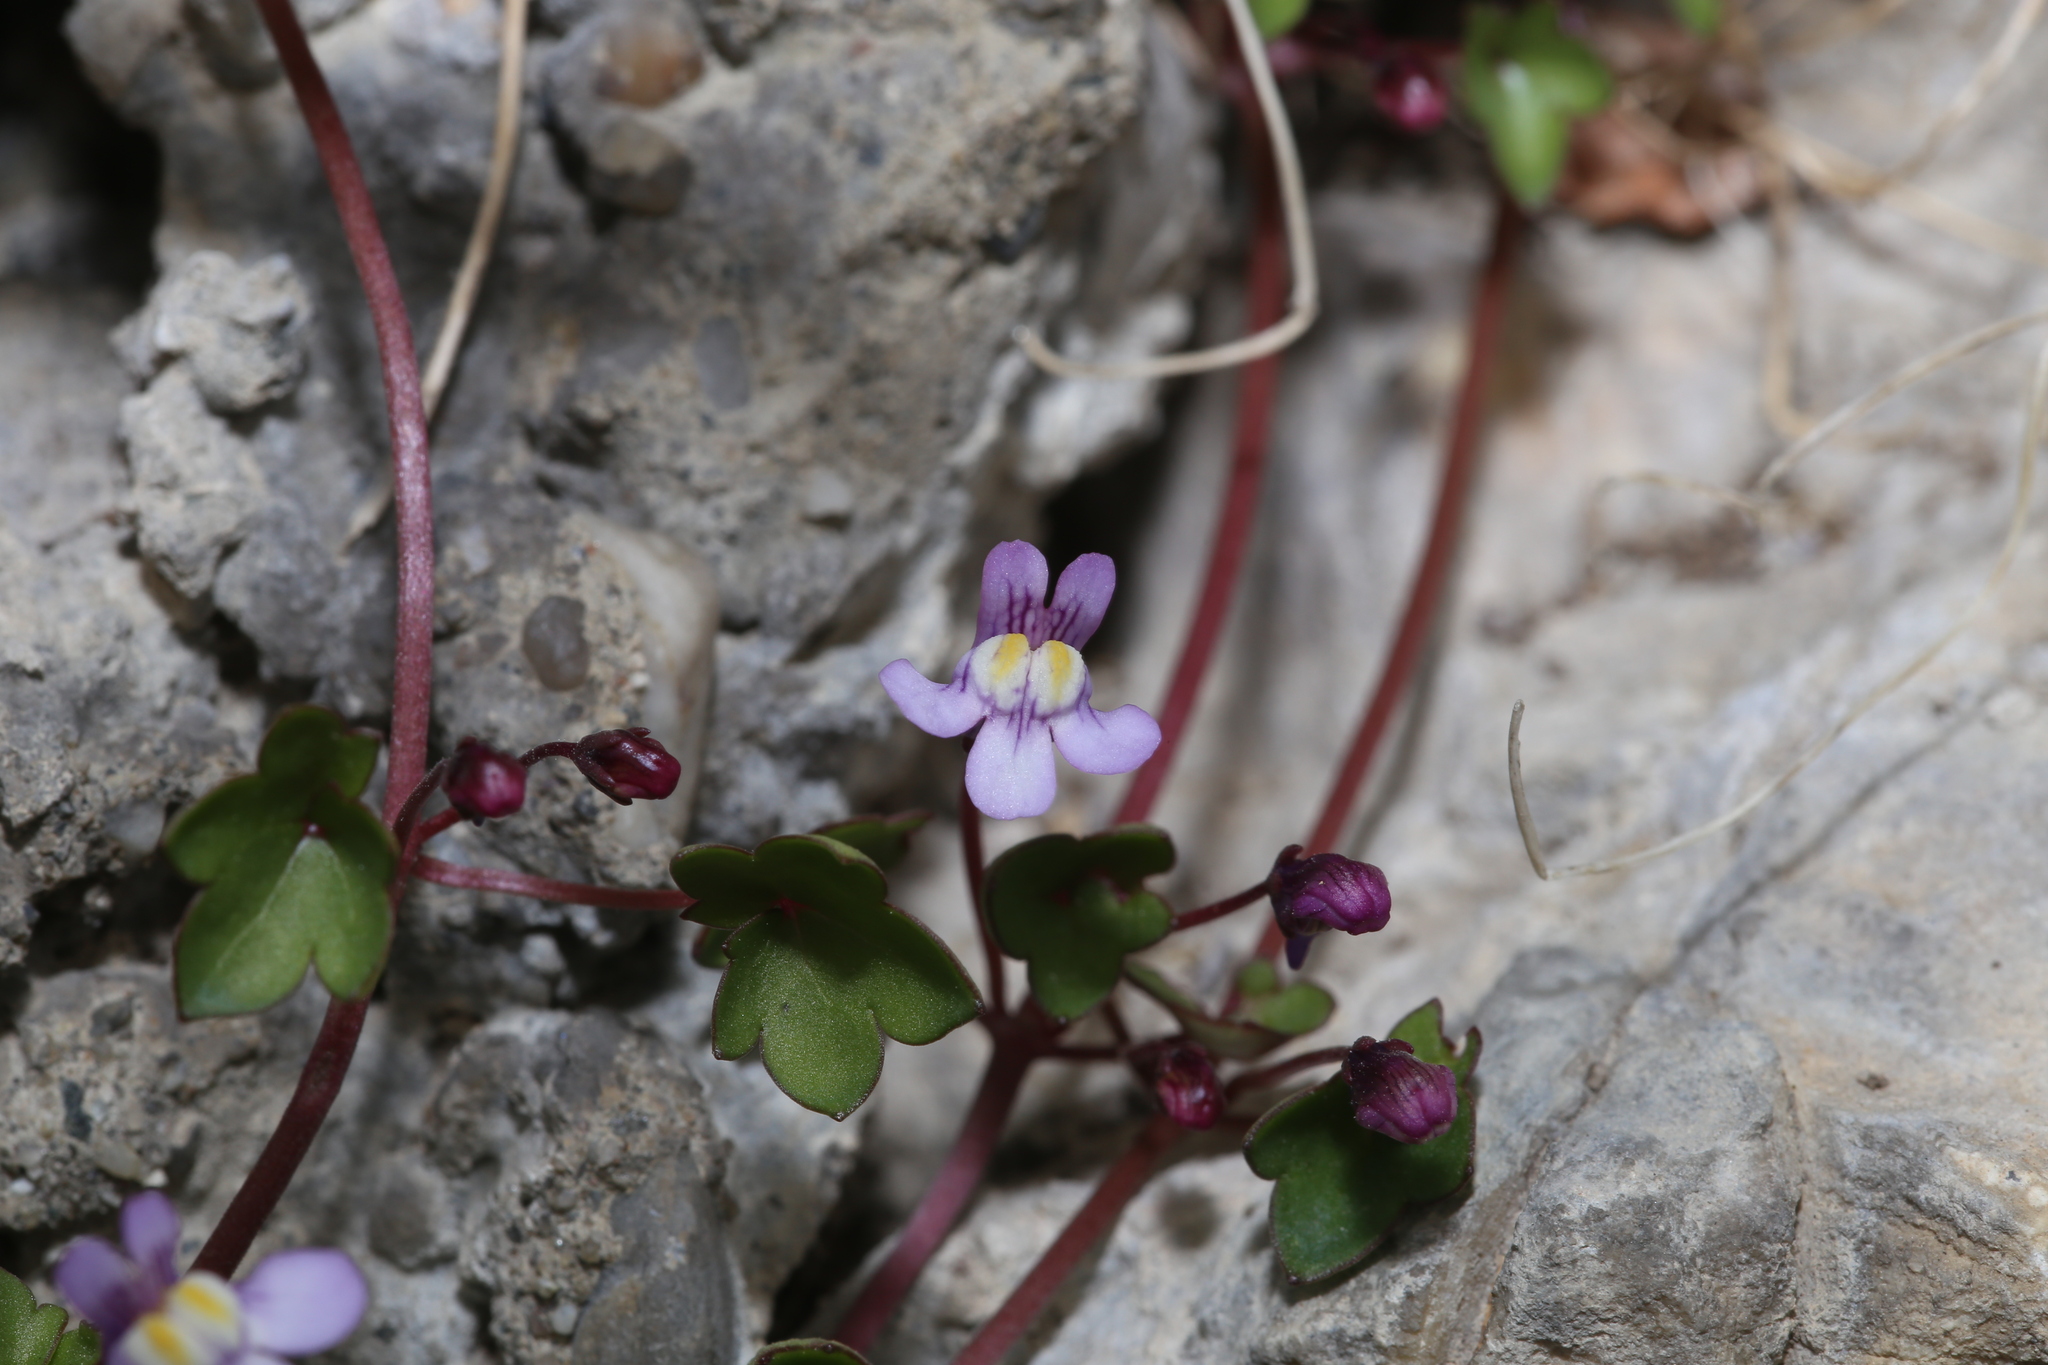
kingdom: Plantae
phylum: Tracheophyta
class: Magnoliopsida
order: Lamiales
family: Plantaginaceae
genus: Cymbalaria
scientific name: Cymbalaria muralis
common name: Ivy-leaved toadflax
